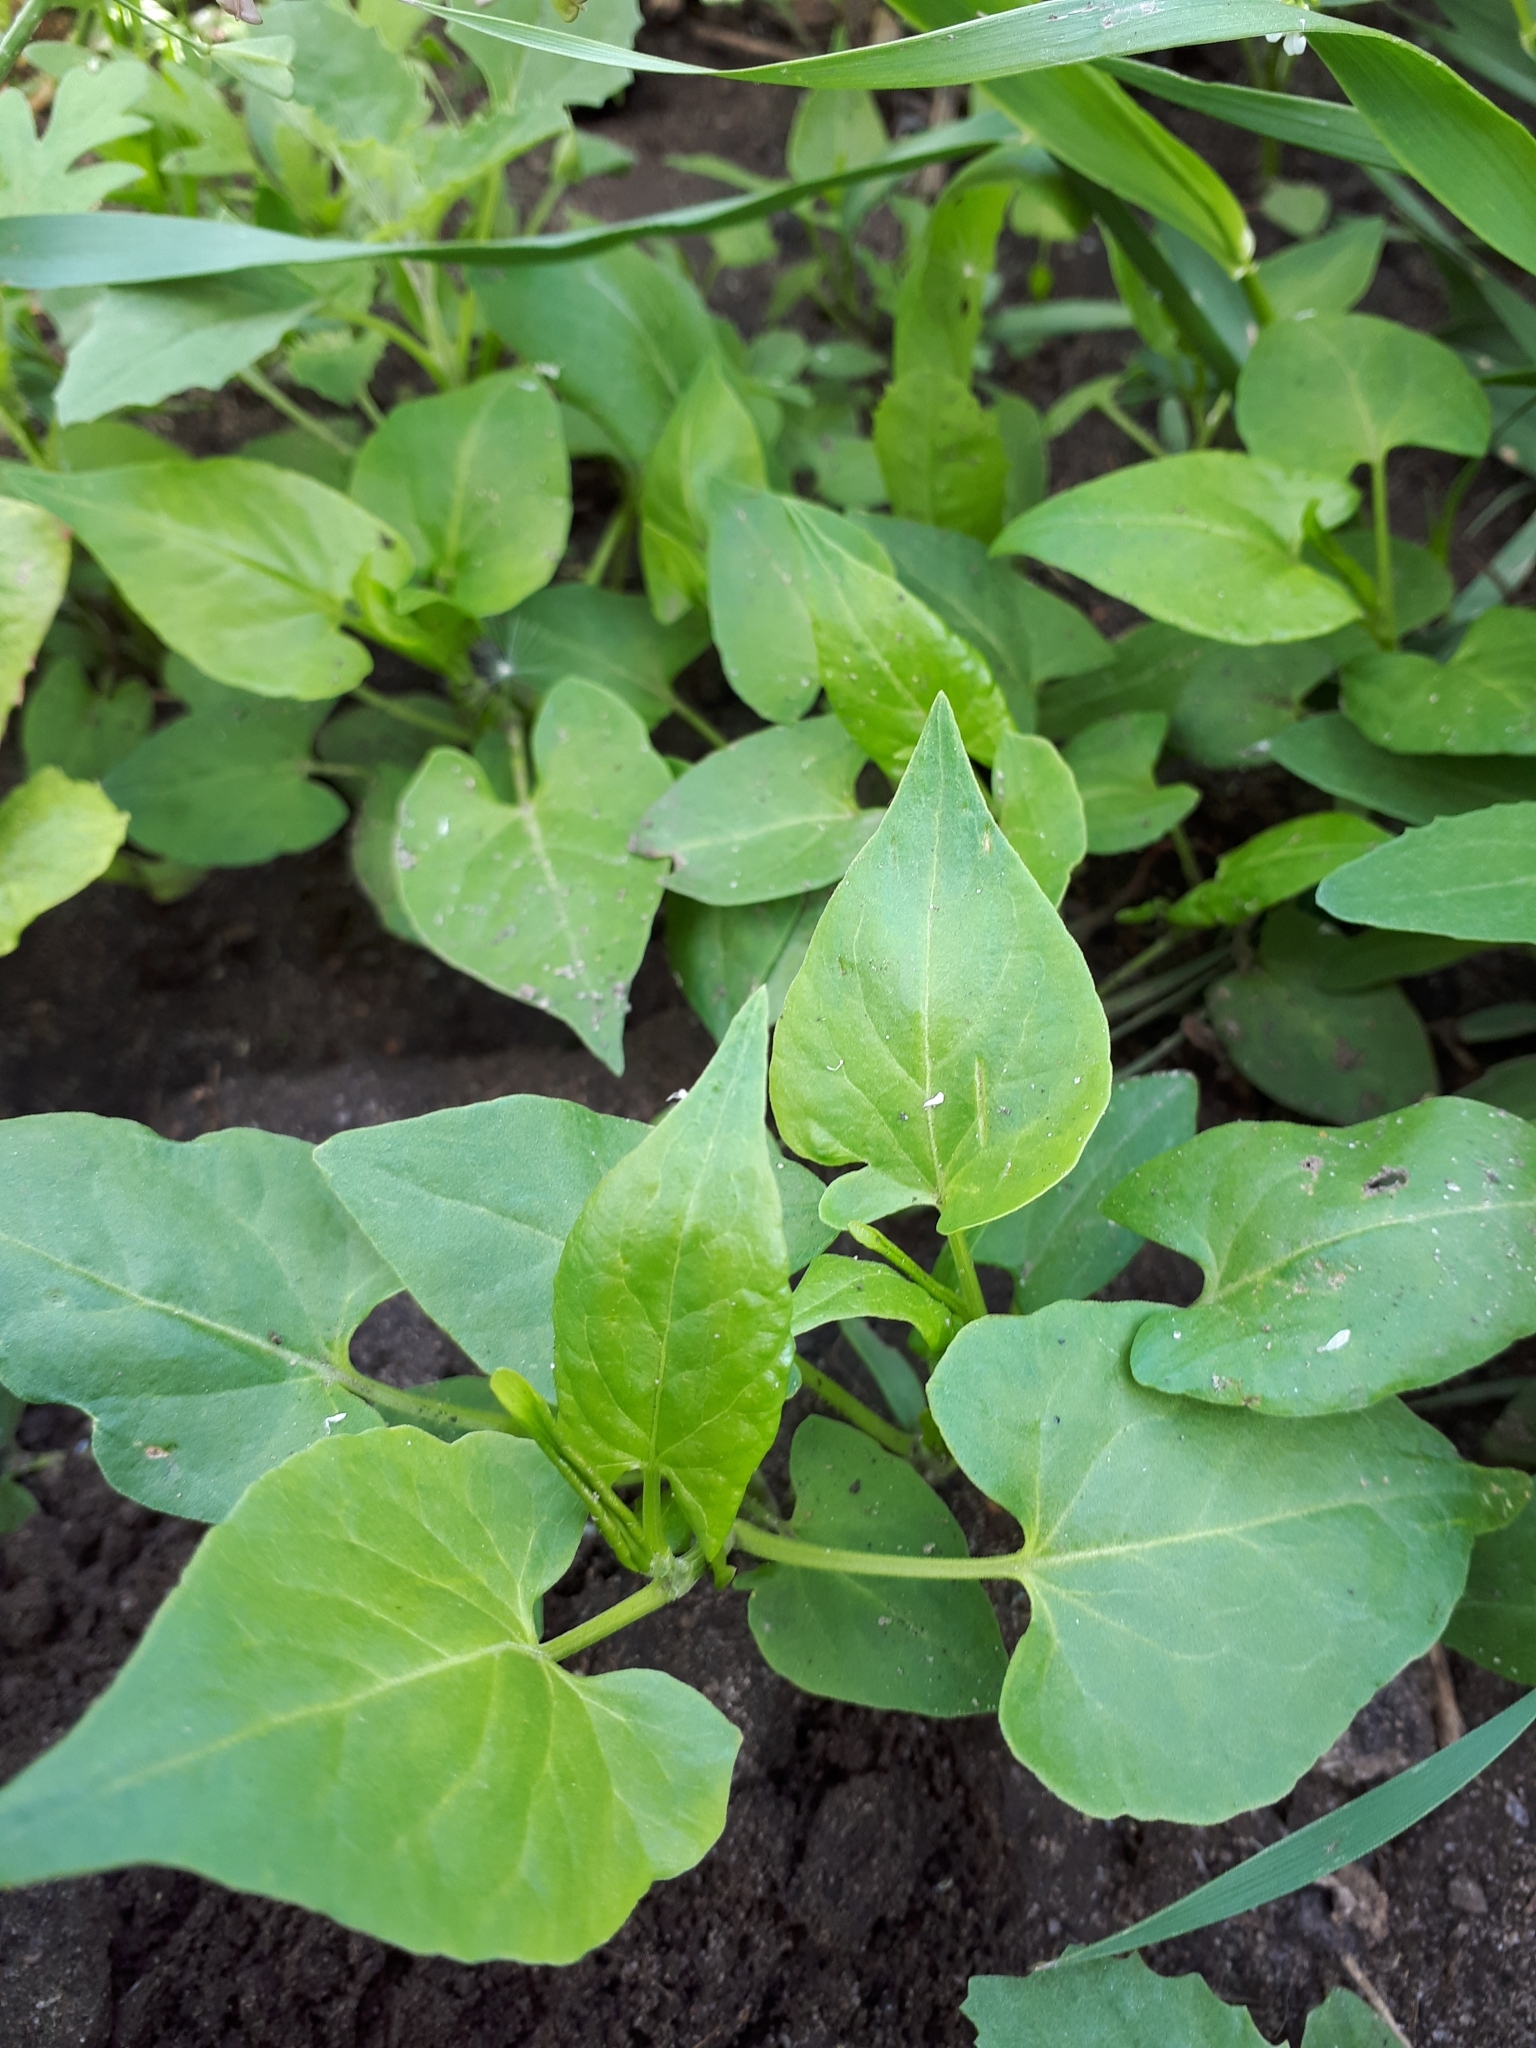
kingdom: Plantae
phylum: Tracheophyta
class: Magnoliopsida
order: Caryophyllales
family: Polygonaceae
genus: Fallopia
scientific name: Fallopia
